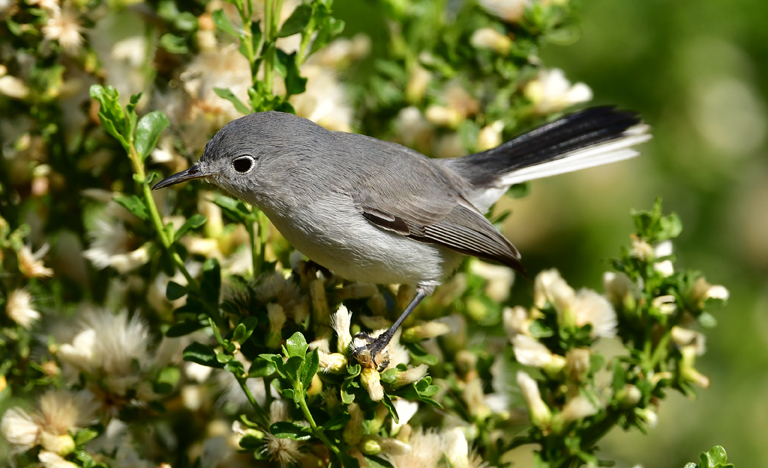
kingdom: Animalia
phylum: Chordata
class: Aves
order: Passeriformes
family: Polioptilidae
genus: Polioptila
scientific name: Polioptila caerulea
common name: Blue-gray gnatcatcher
